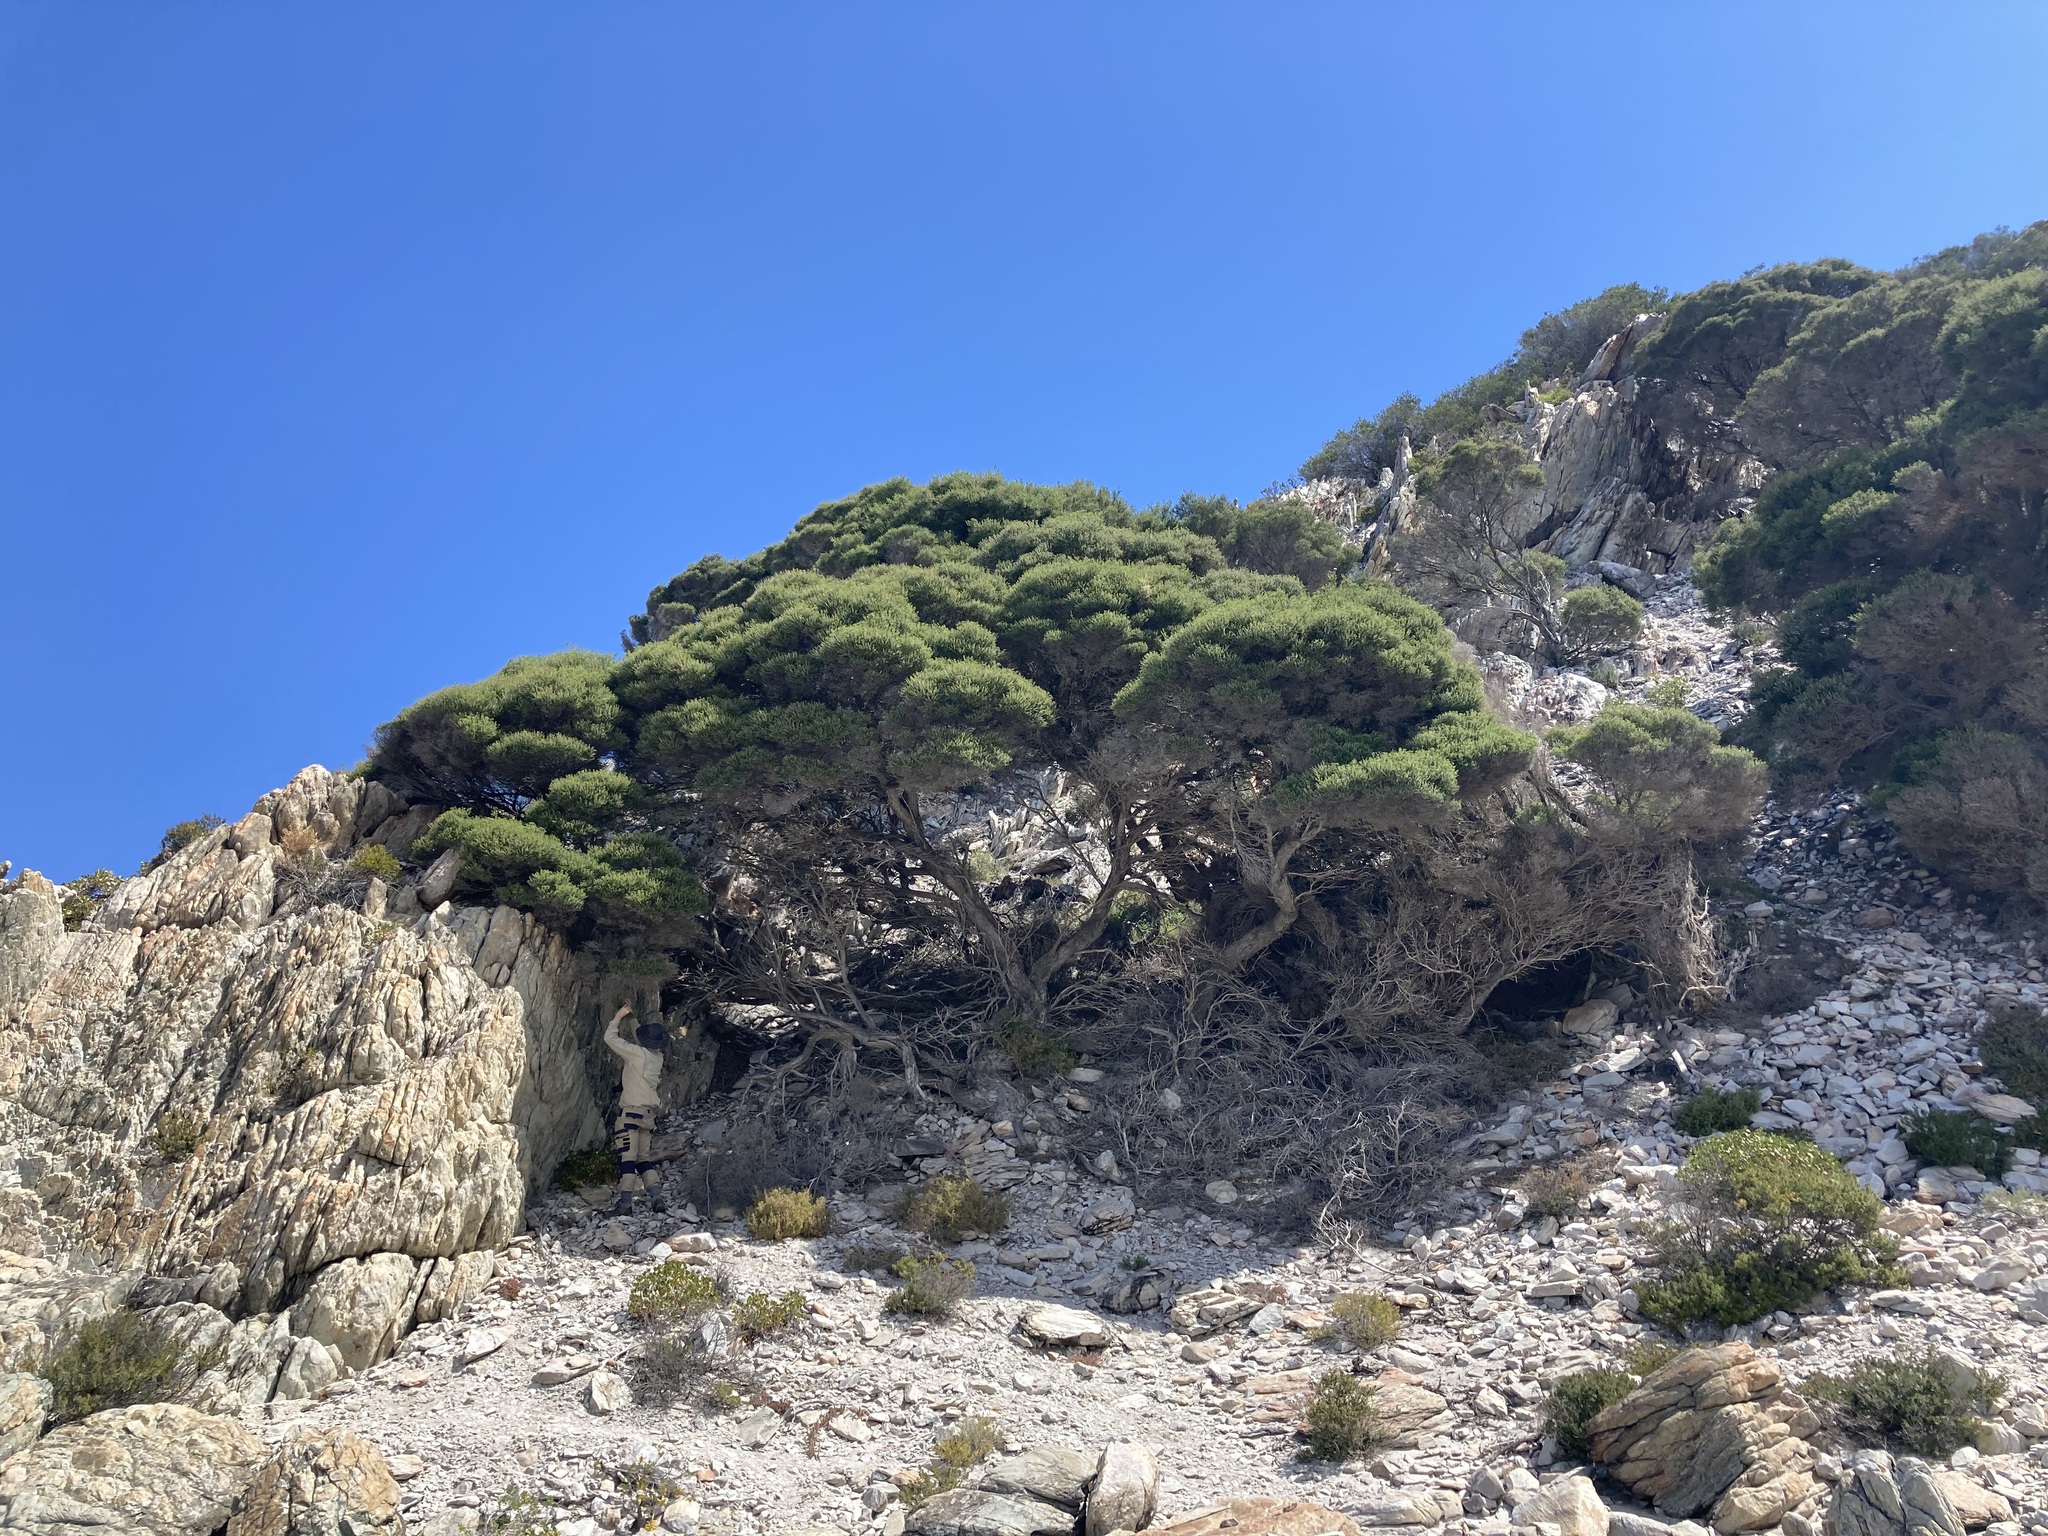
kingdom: Plantae
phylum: Tracheophyta
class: Magnoliopsida
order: Myrtales
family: Myrtaceae
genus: Melaleuca
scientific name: Melaleuca lanceolata
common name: Rottnest island teatree
